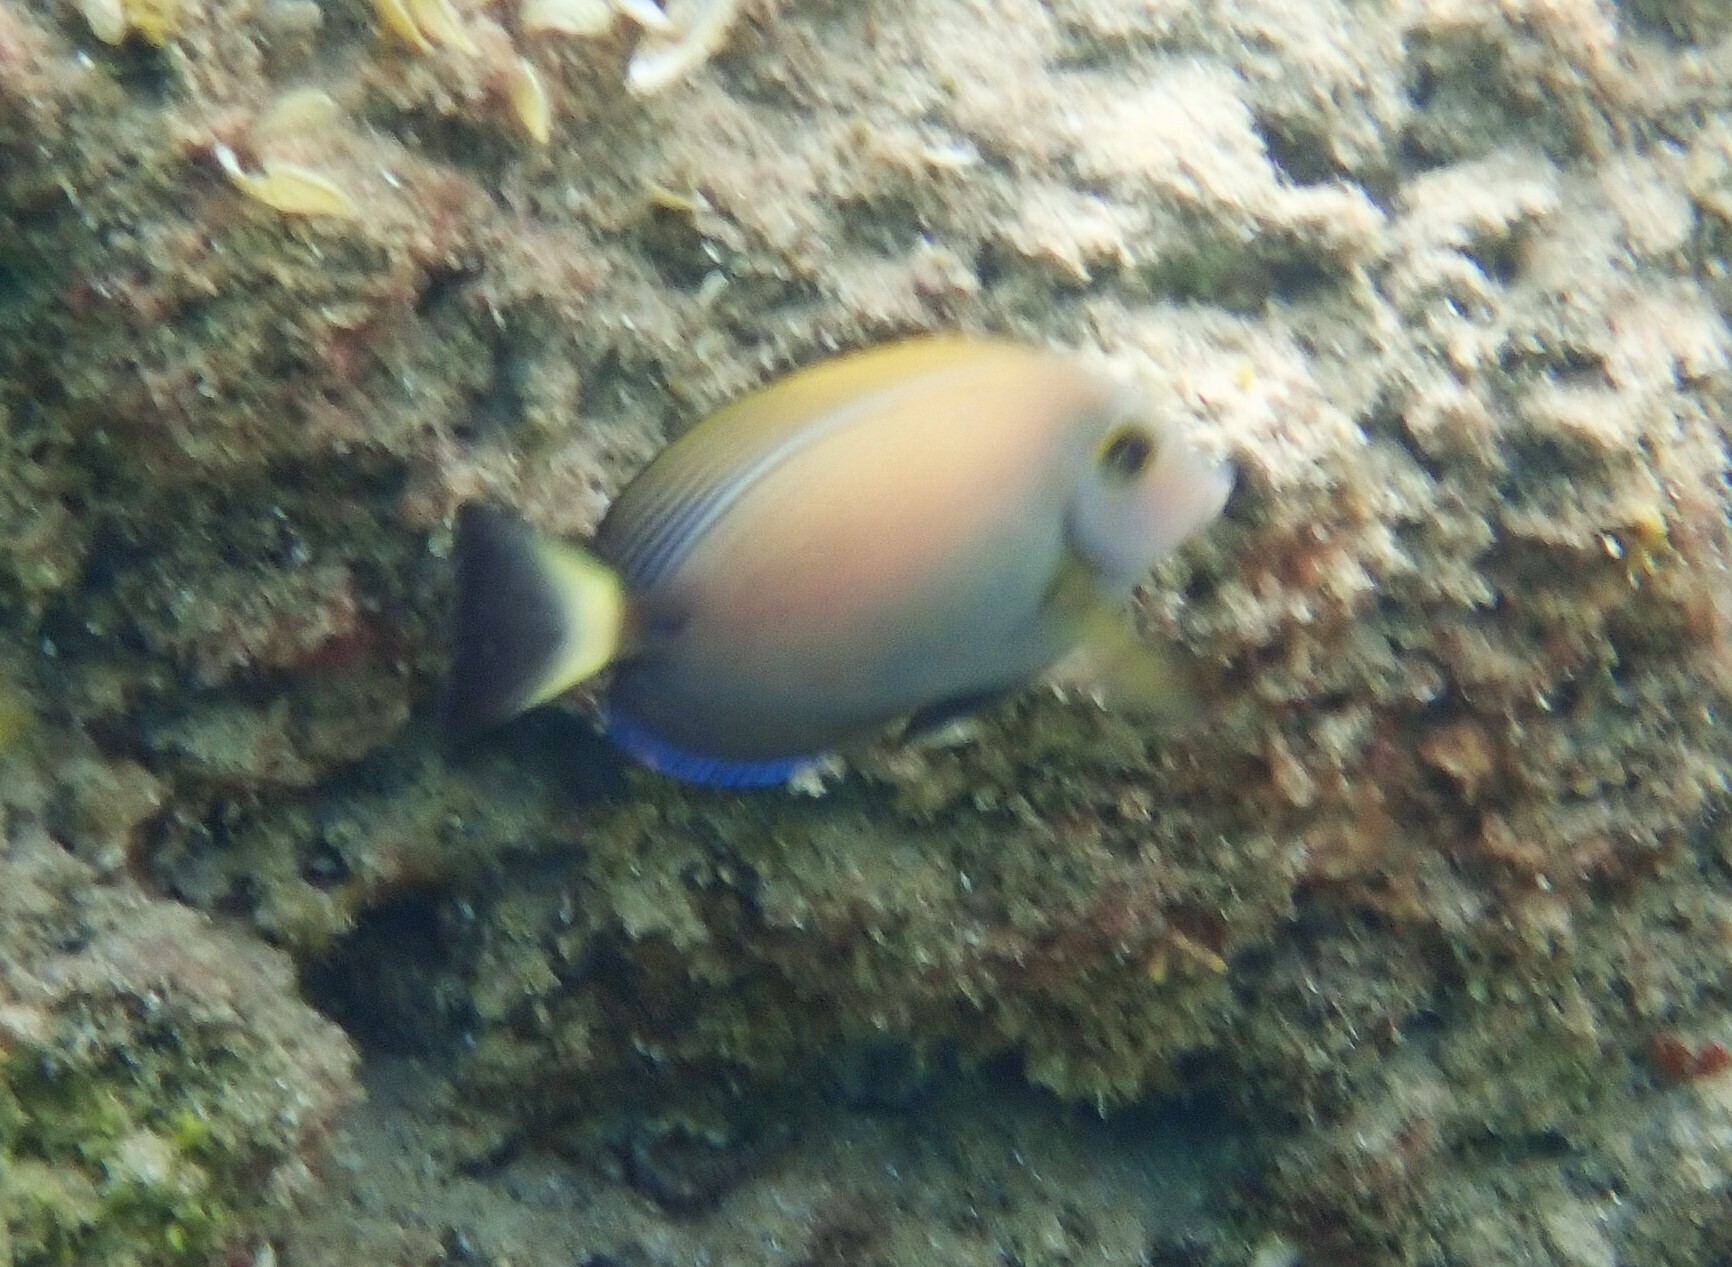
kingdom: Animalia
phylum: Chordata
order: Perciformes
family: Acanthuridae
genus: Acanthurus
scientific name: Acanthurus dussumieri
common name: Dussumier's surgeonfish
